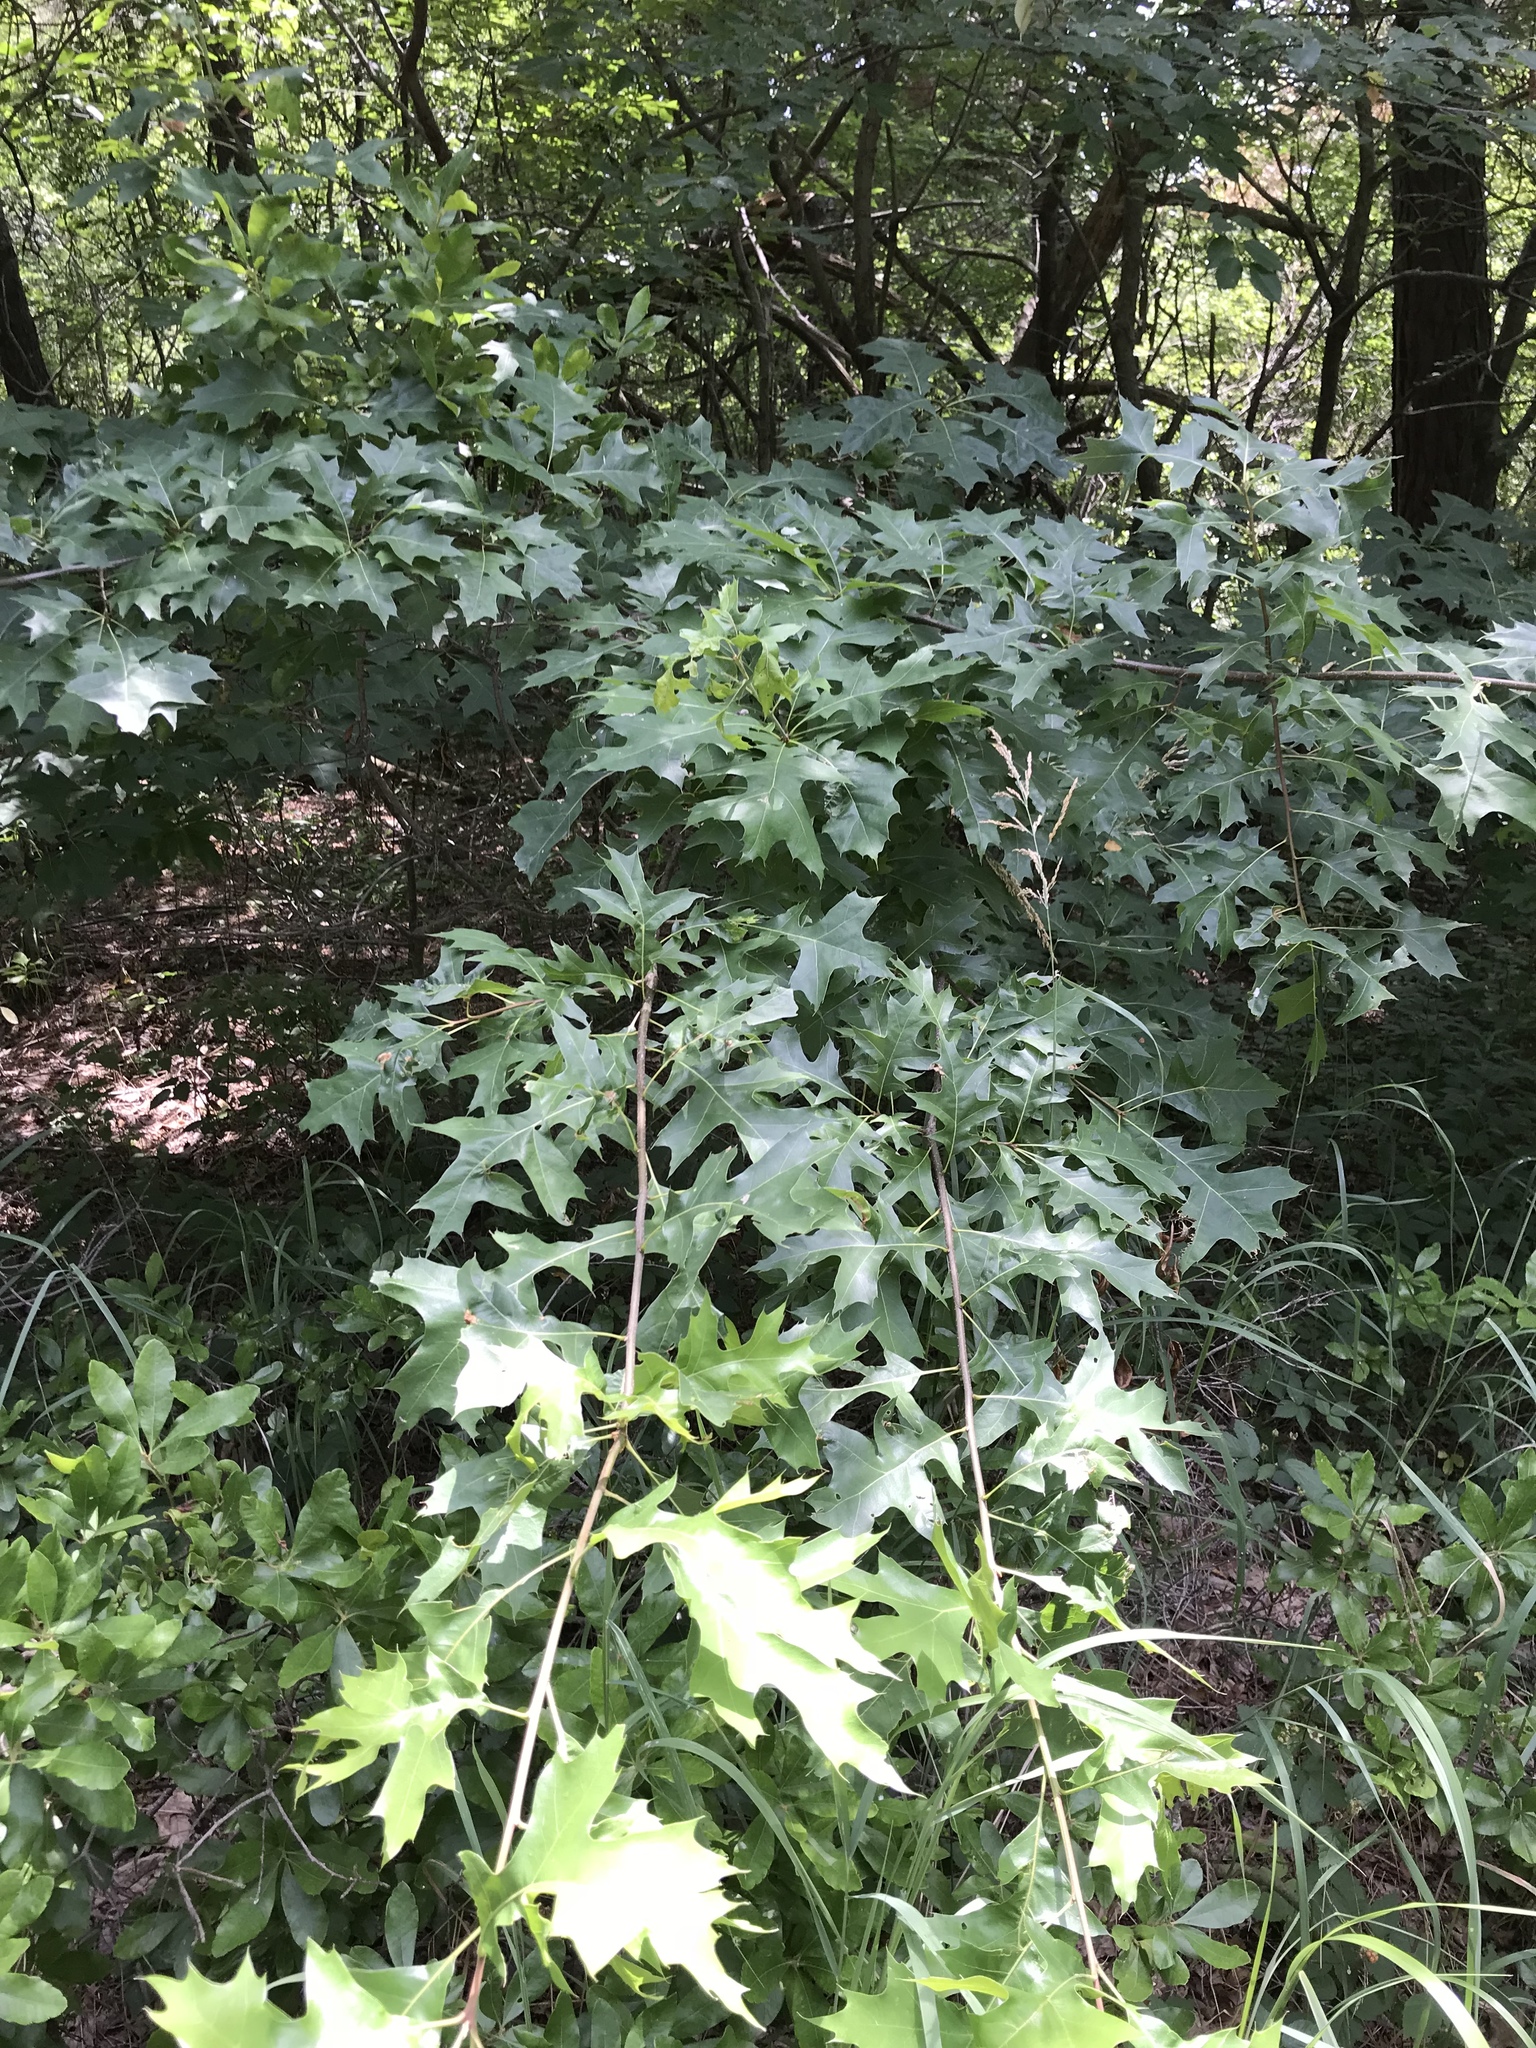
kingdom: Plantae
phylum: Tracheophyta
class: Magnoliopsida
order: Fagales
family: Fagaceae
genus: Quercus
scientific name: Quercus rubra
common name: Red oak
